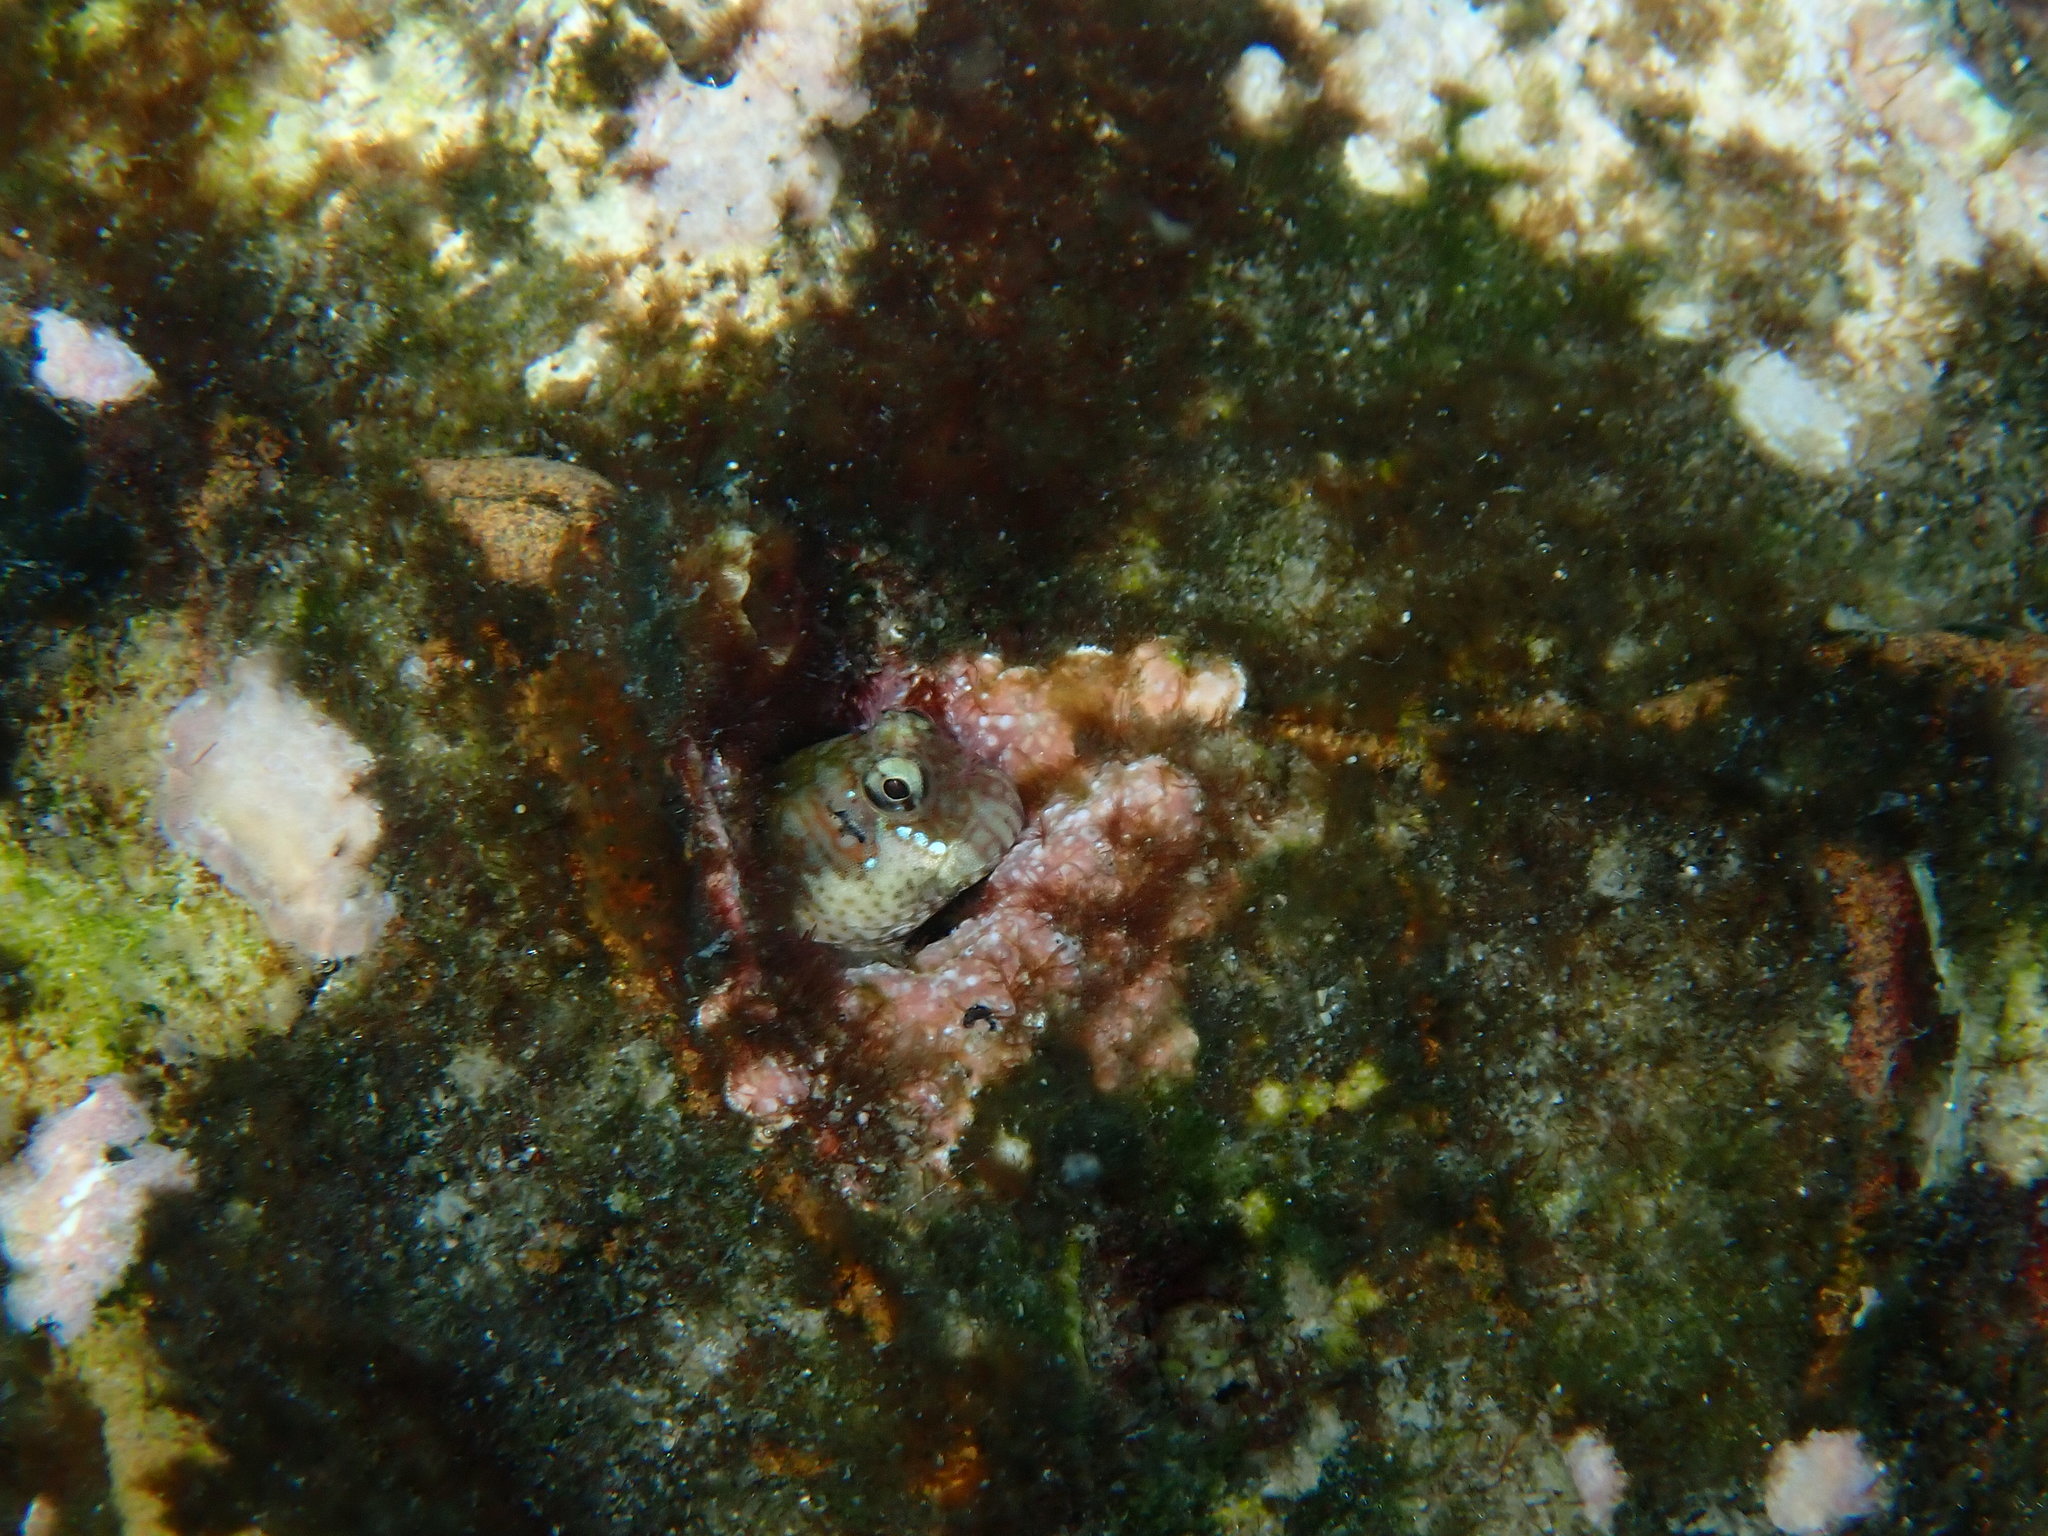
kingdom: Animalia
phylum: Chordata
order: Perciformes
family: Blenniidae
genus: Entomacrodus
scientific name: Entomacrodus caudofasciatus
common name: Bartail blenny
